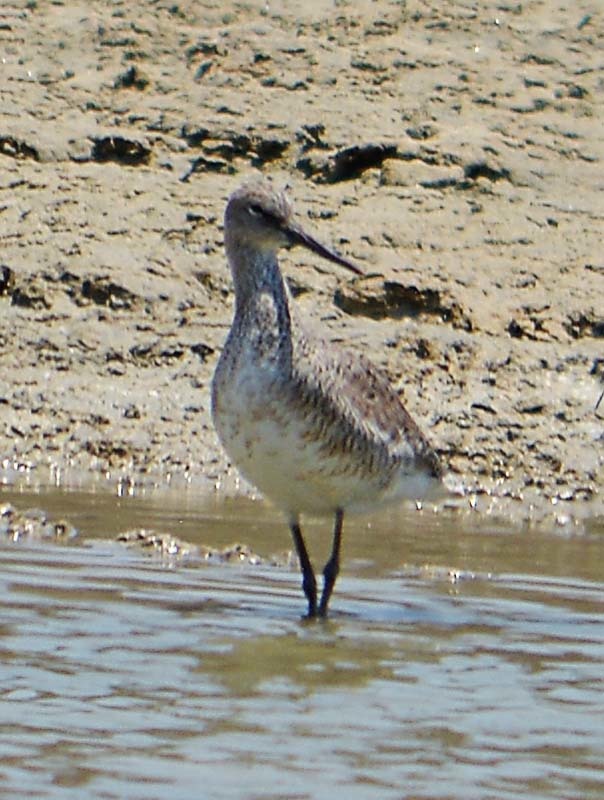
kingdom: Animalia
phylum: Chordata
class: Aves
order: Charadriiformes
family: Scolopacidae
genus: Tringa
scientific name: Tringa semipalmata
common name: Willet
